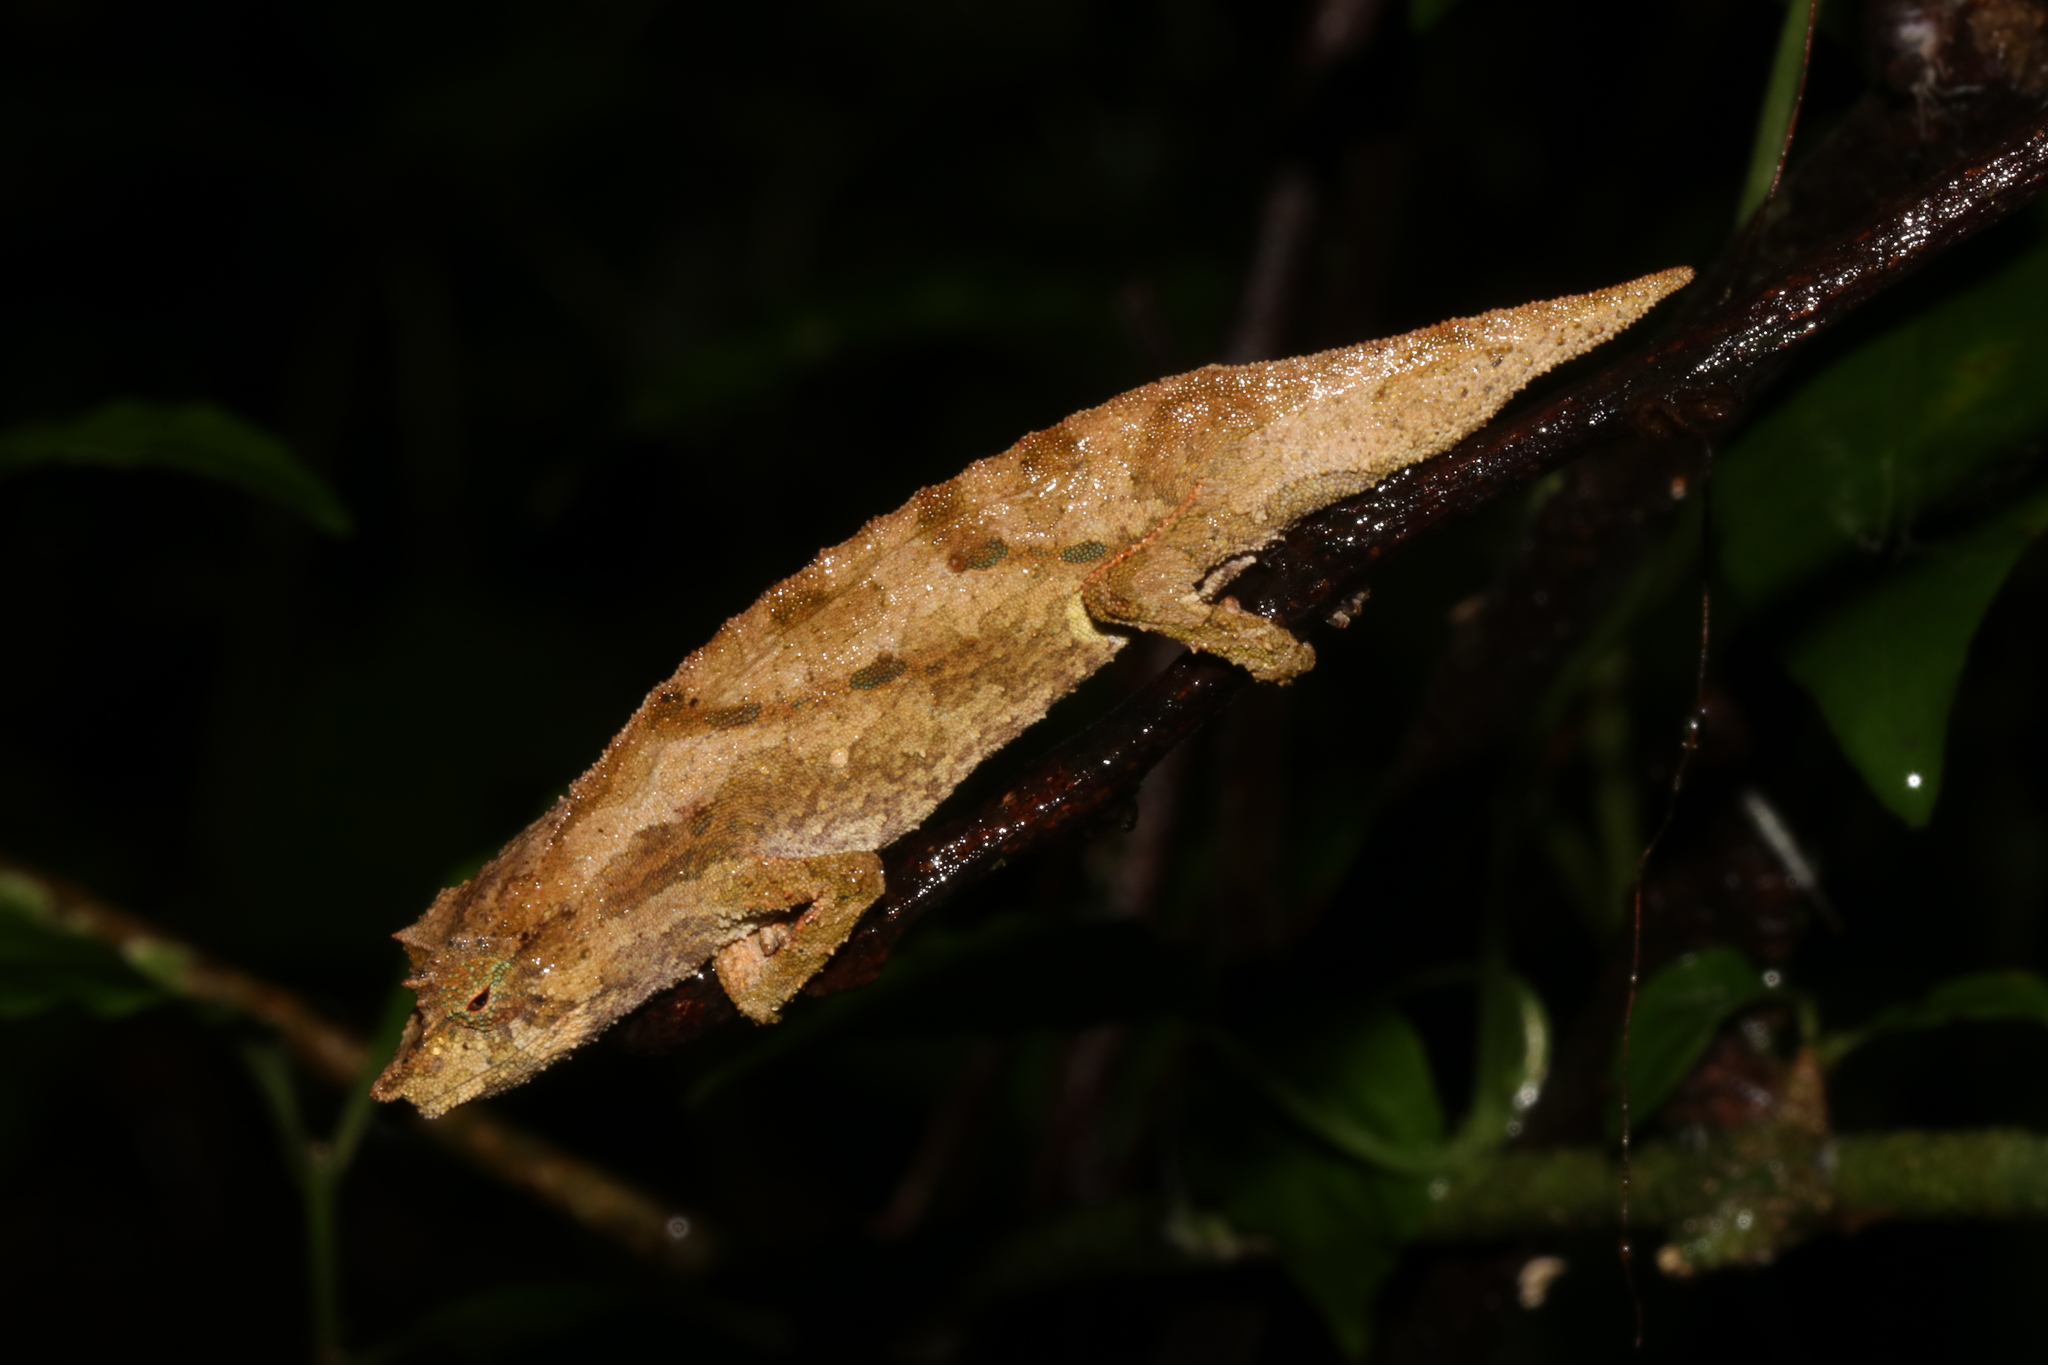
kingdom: Animalia
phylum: Chordata
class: Squamata
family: Chamaeleonidae
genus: Rhampholeon
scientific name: Rhampholeon nchisiensis
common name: South african stumptail chameleon
